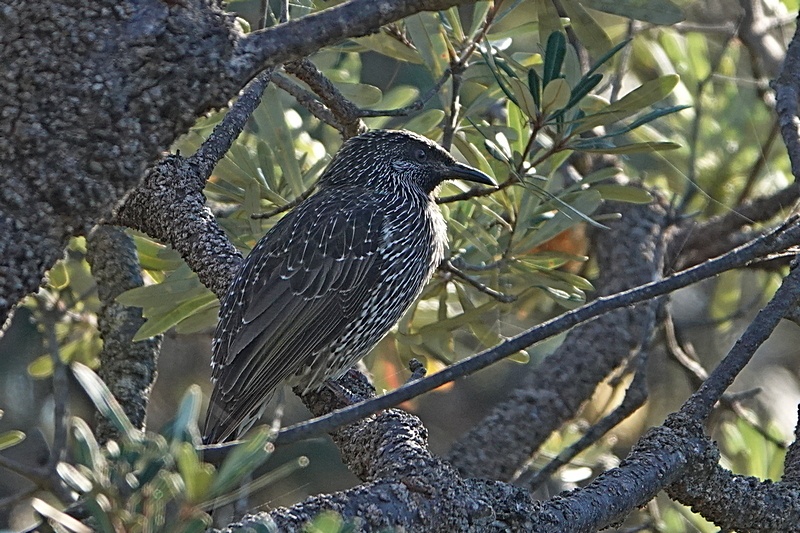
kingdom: Animalia
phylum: Chordata
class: Aves
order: Passeriformes
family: Meliphagidae
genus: Anthochaera
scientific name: Anthochaera chrysoptera
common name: Little wattlebird
